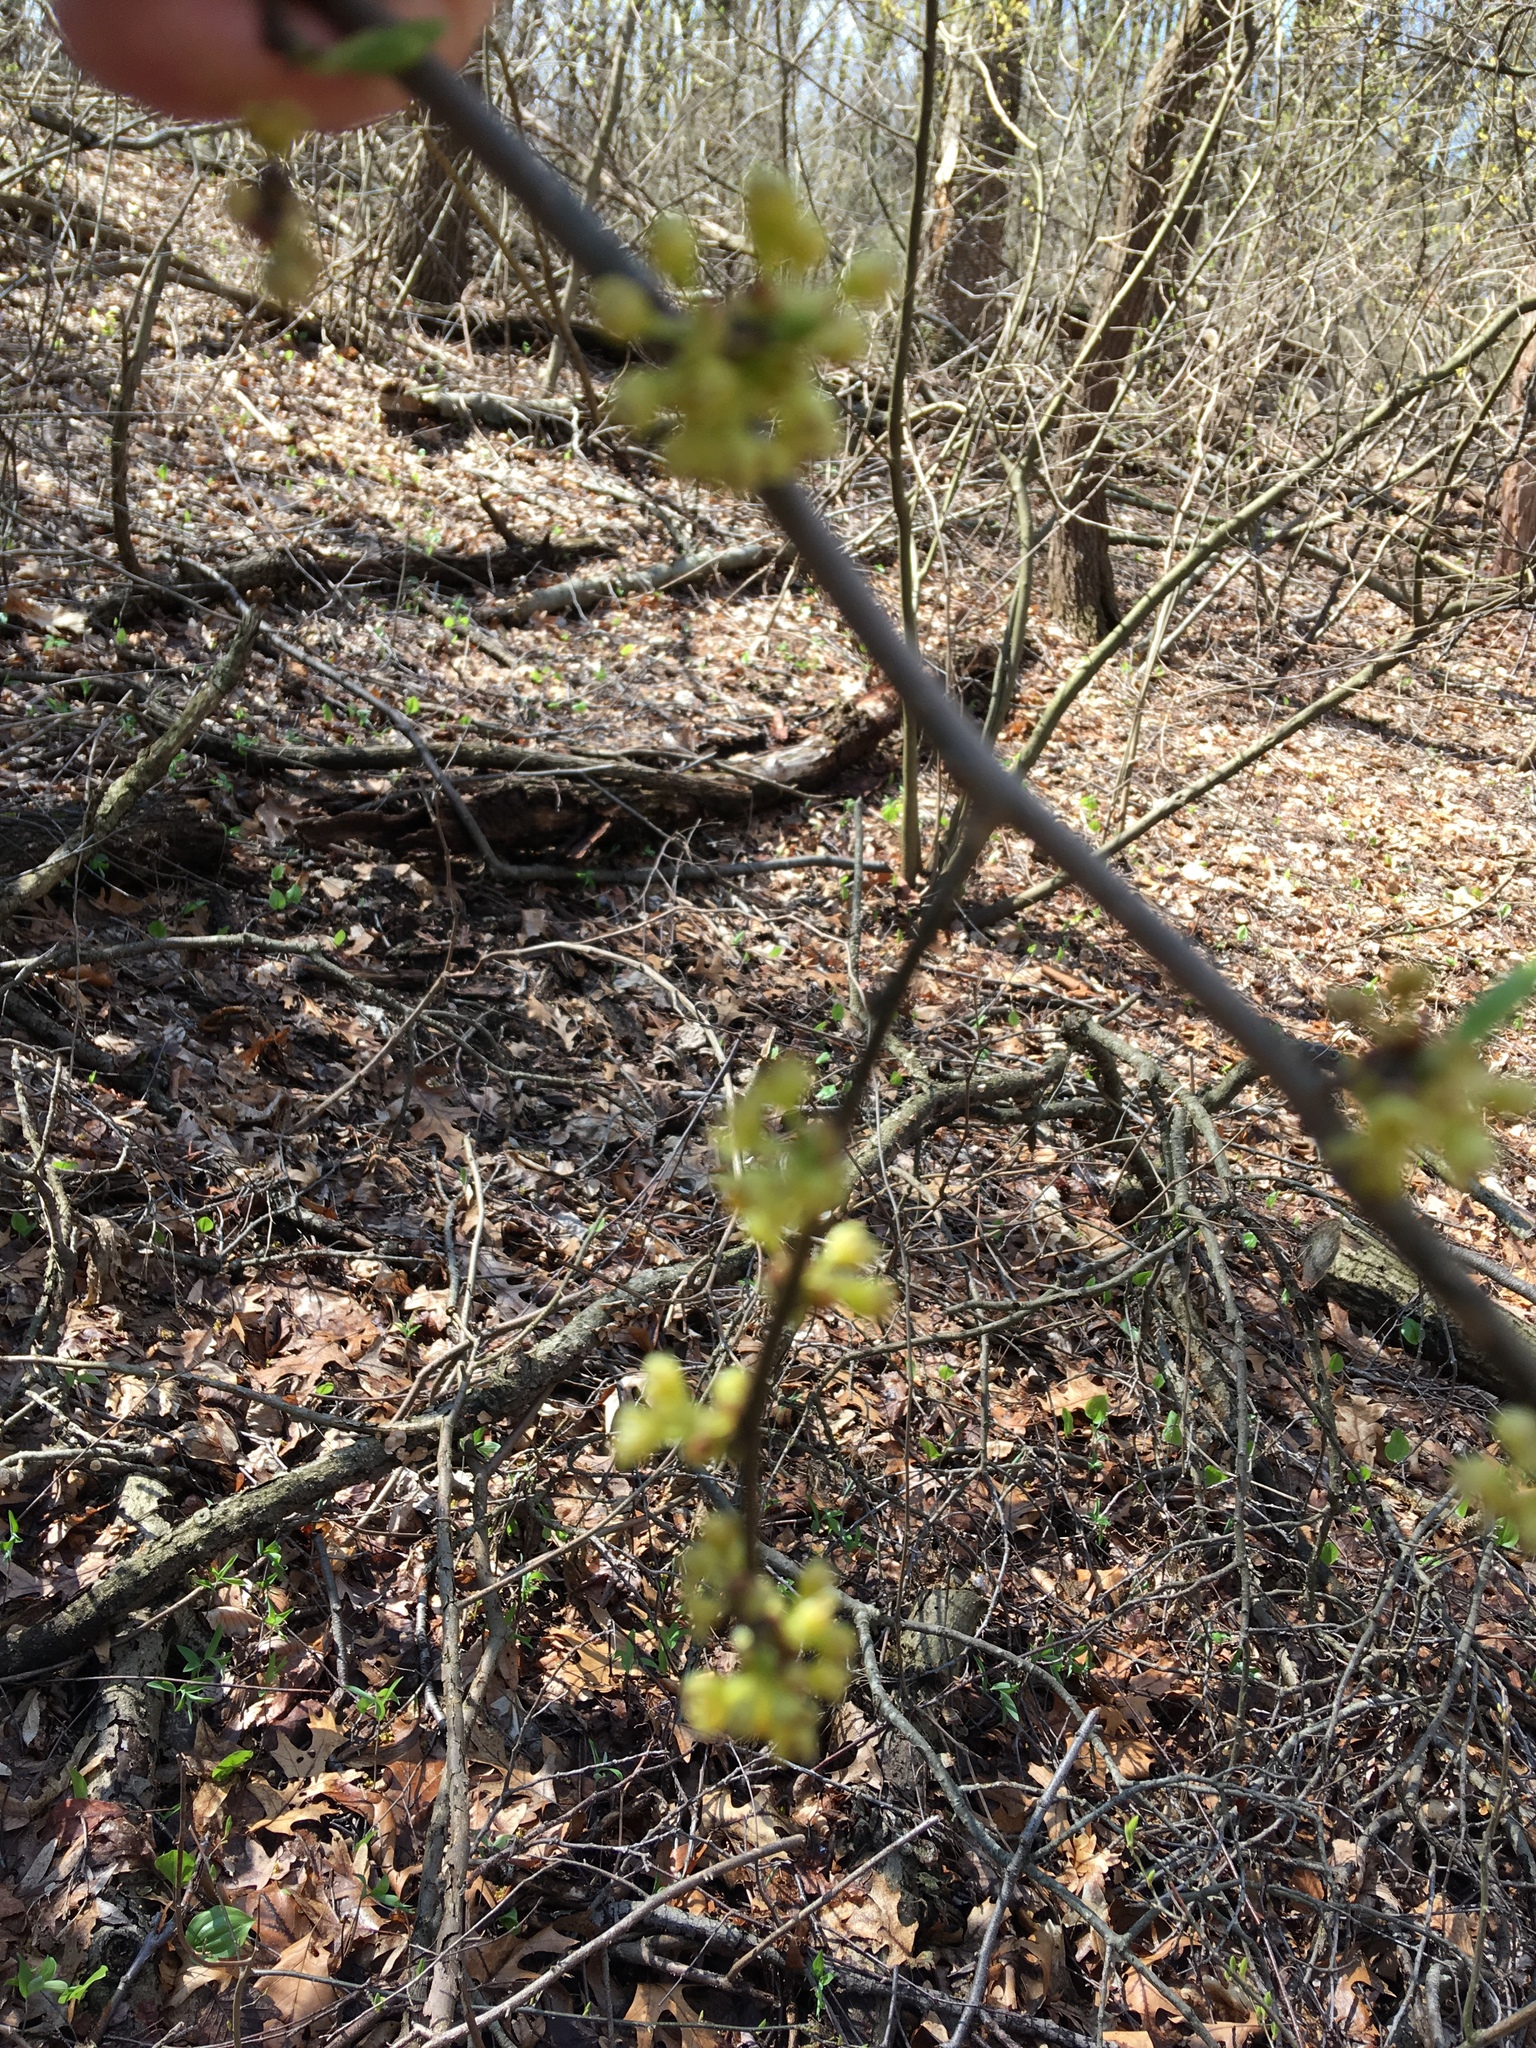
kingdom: Plantae
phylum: Tracheophyta
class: Magnoliopsida
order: Laurales
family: Lauraceae
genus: Lindera
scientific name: Lindera benzoin
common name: Spicebush
